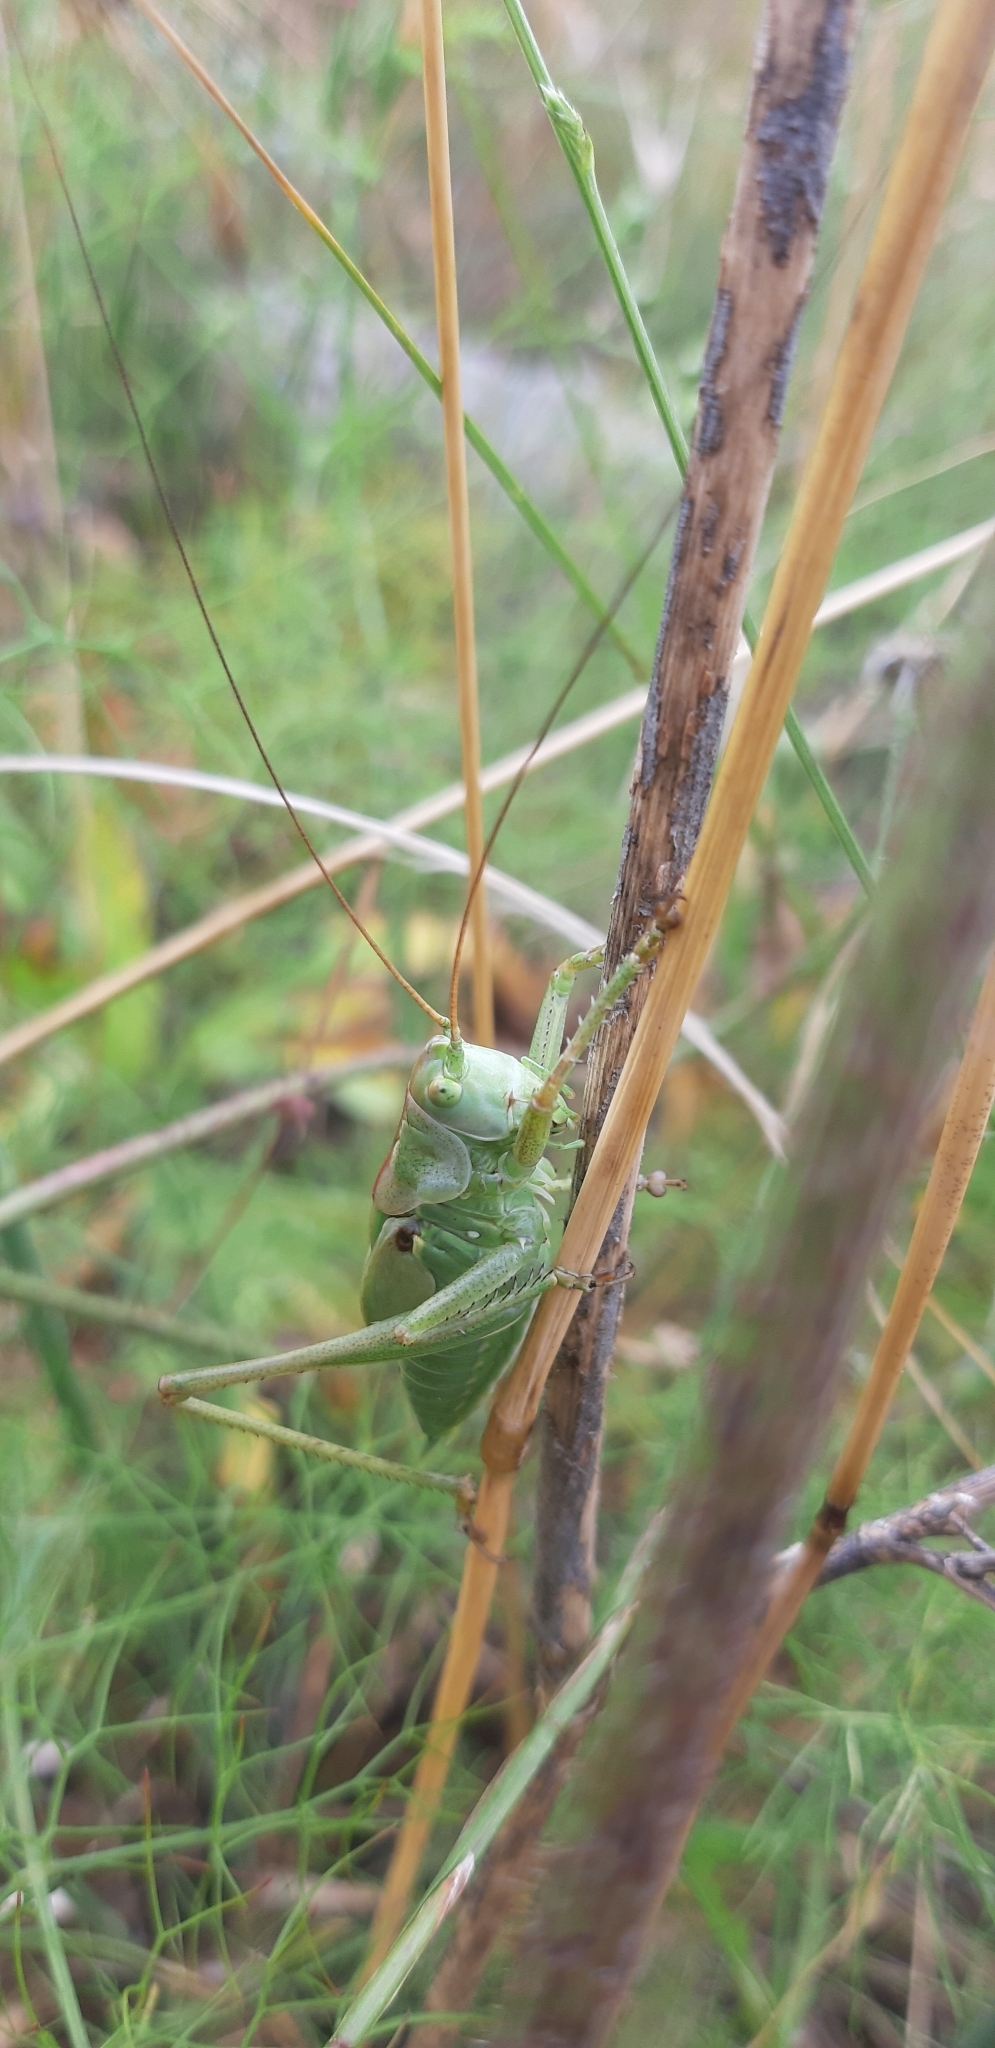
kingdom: Animalia
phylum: Arthropoda
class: Insecta
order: Orthoptera
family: Tettigoniidae
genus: Tettigonia
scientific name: Tettigonia viridissima
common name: Great green bush-cricket
